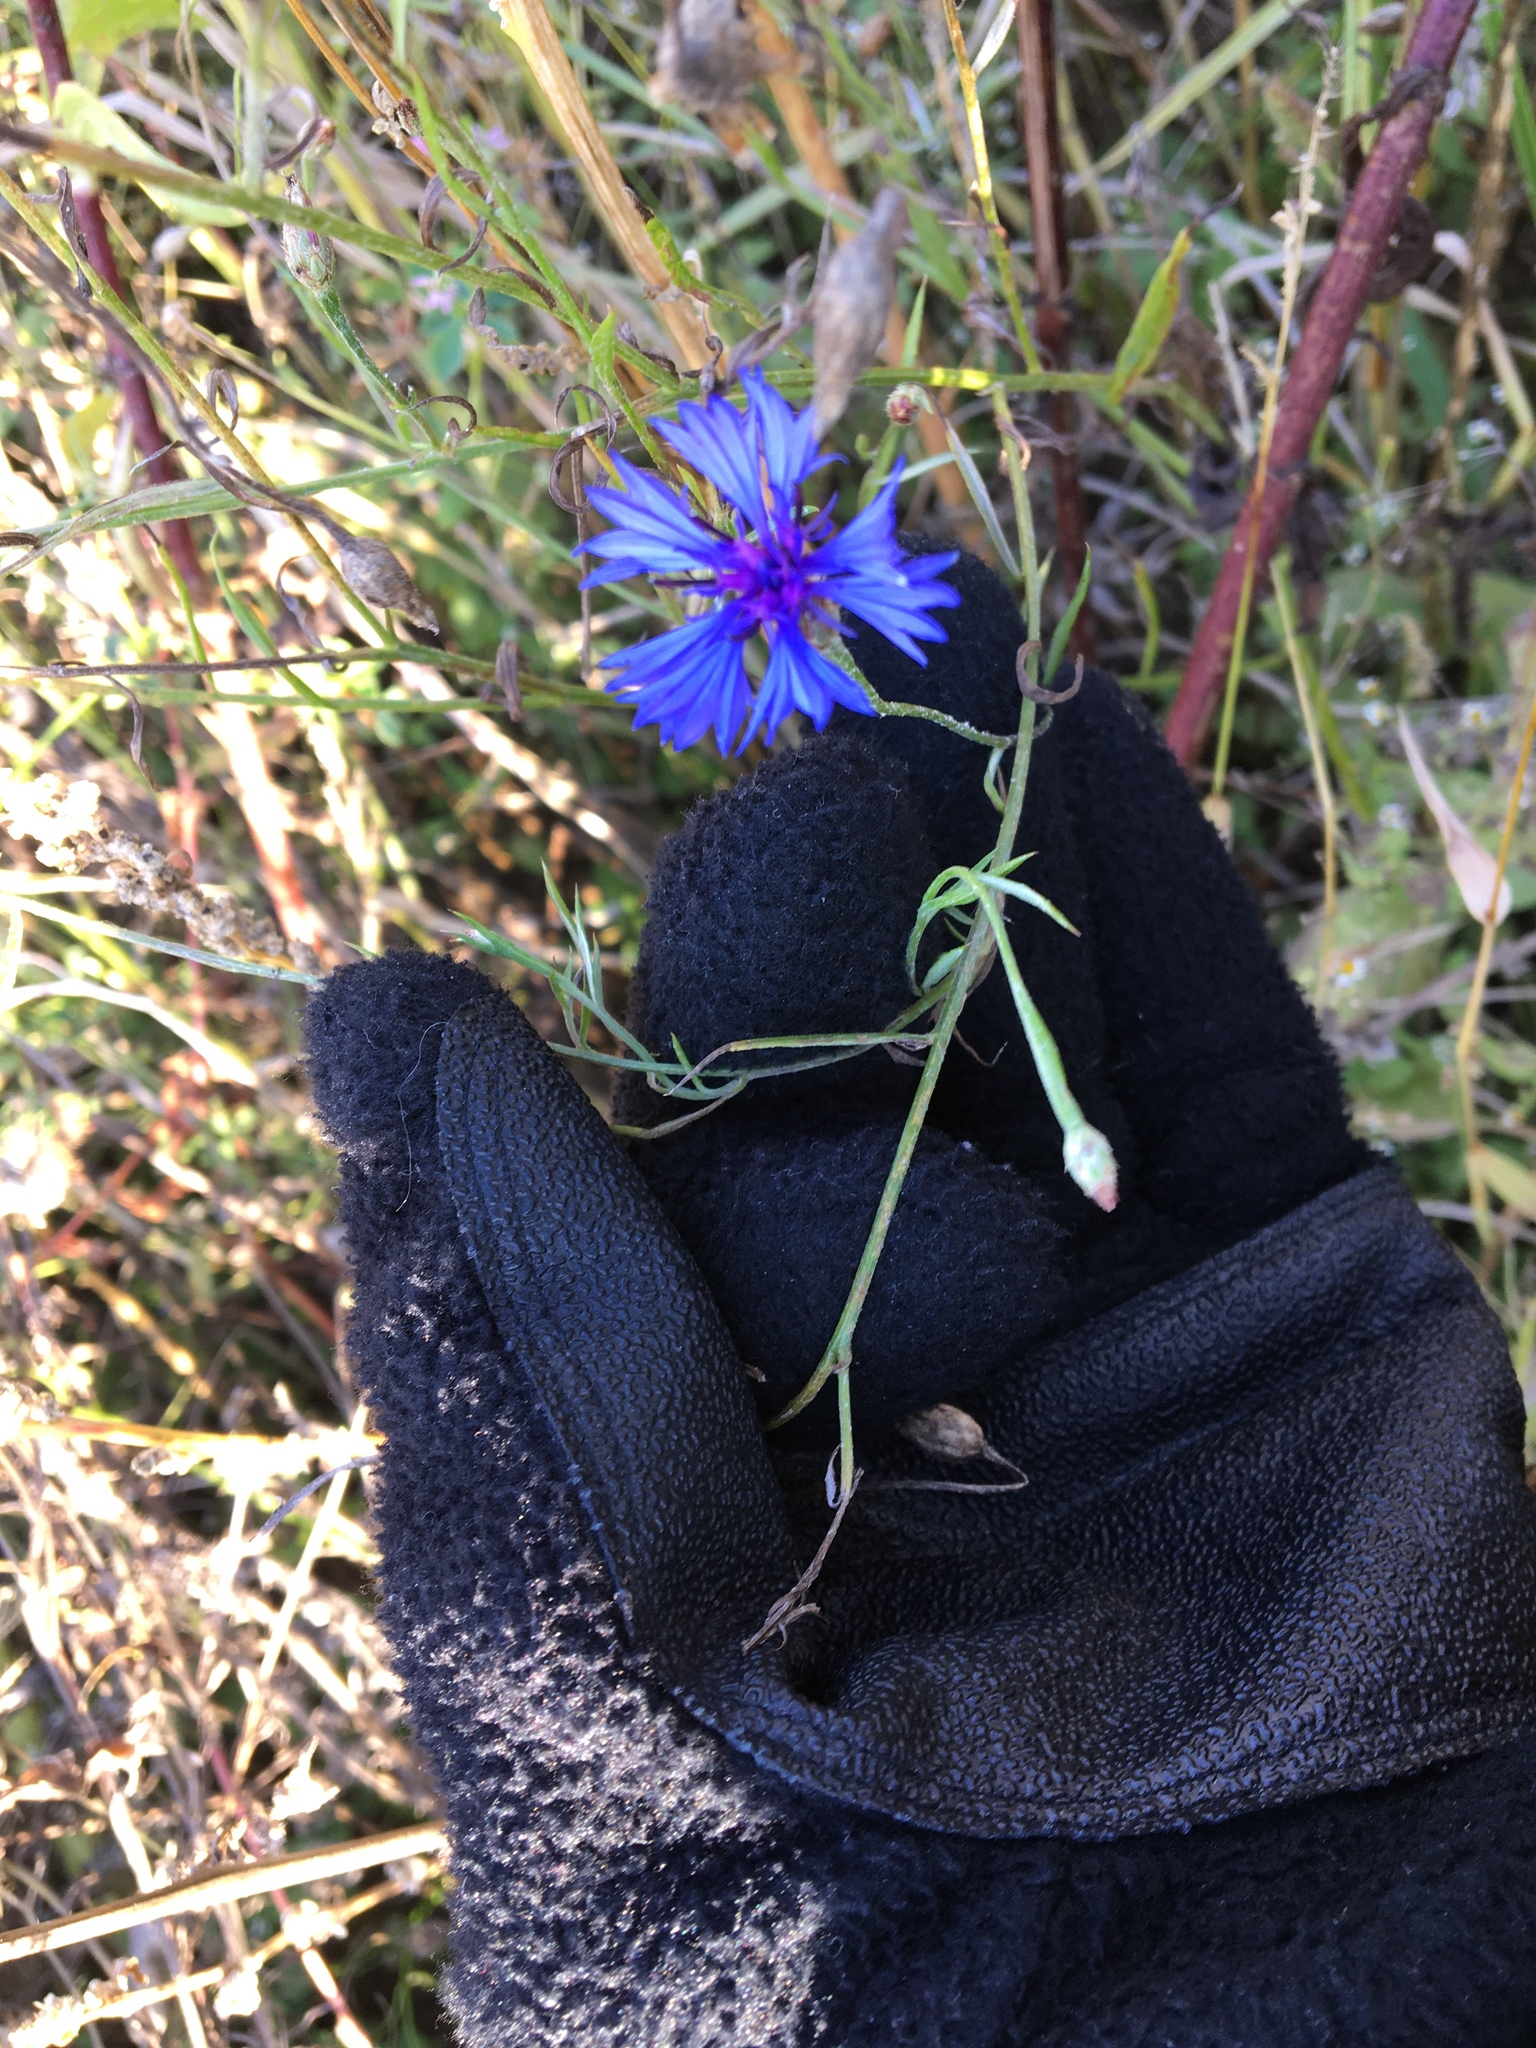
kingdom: Plantae
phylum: Tracheophyta
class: Magnoliopsida
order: Asterales
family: Asteraceae
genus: Centaurea
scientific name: Centaurea cyanus
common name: Cornflower
